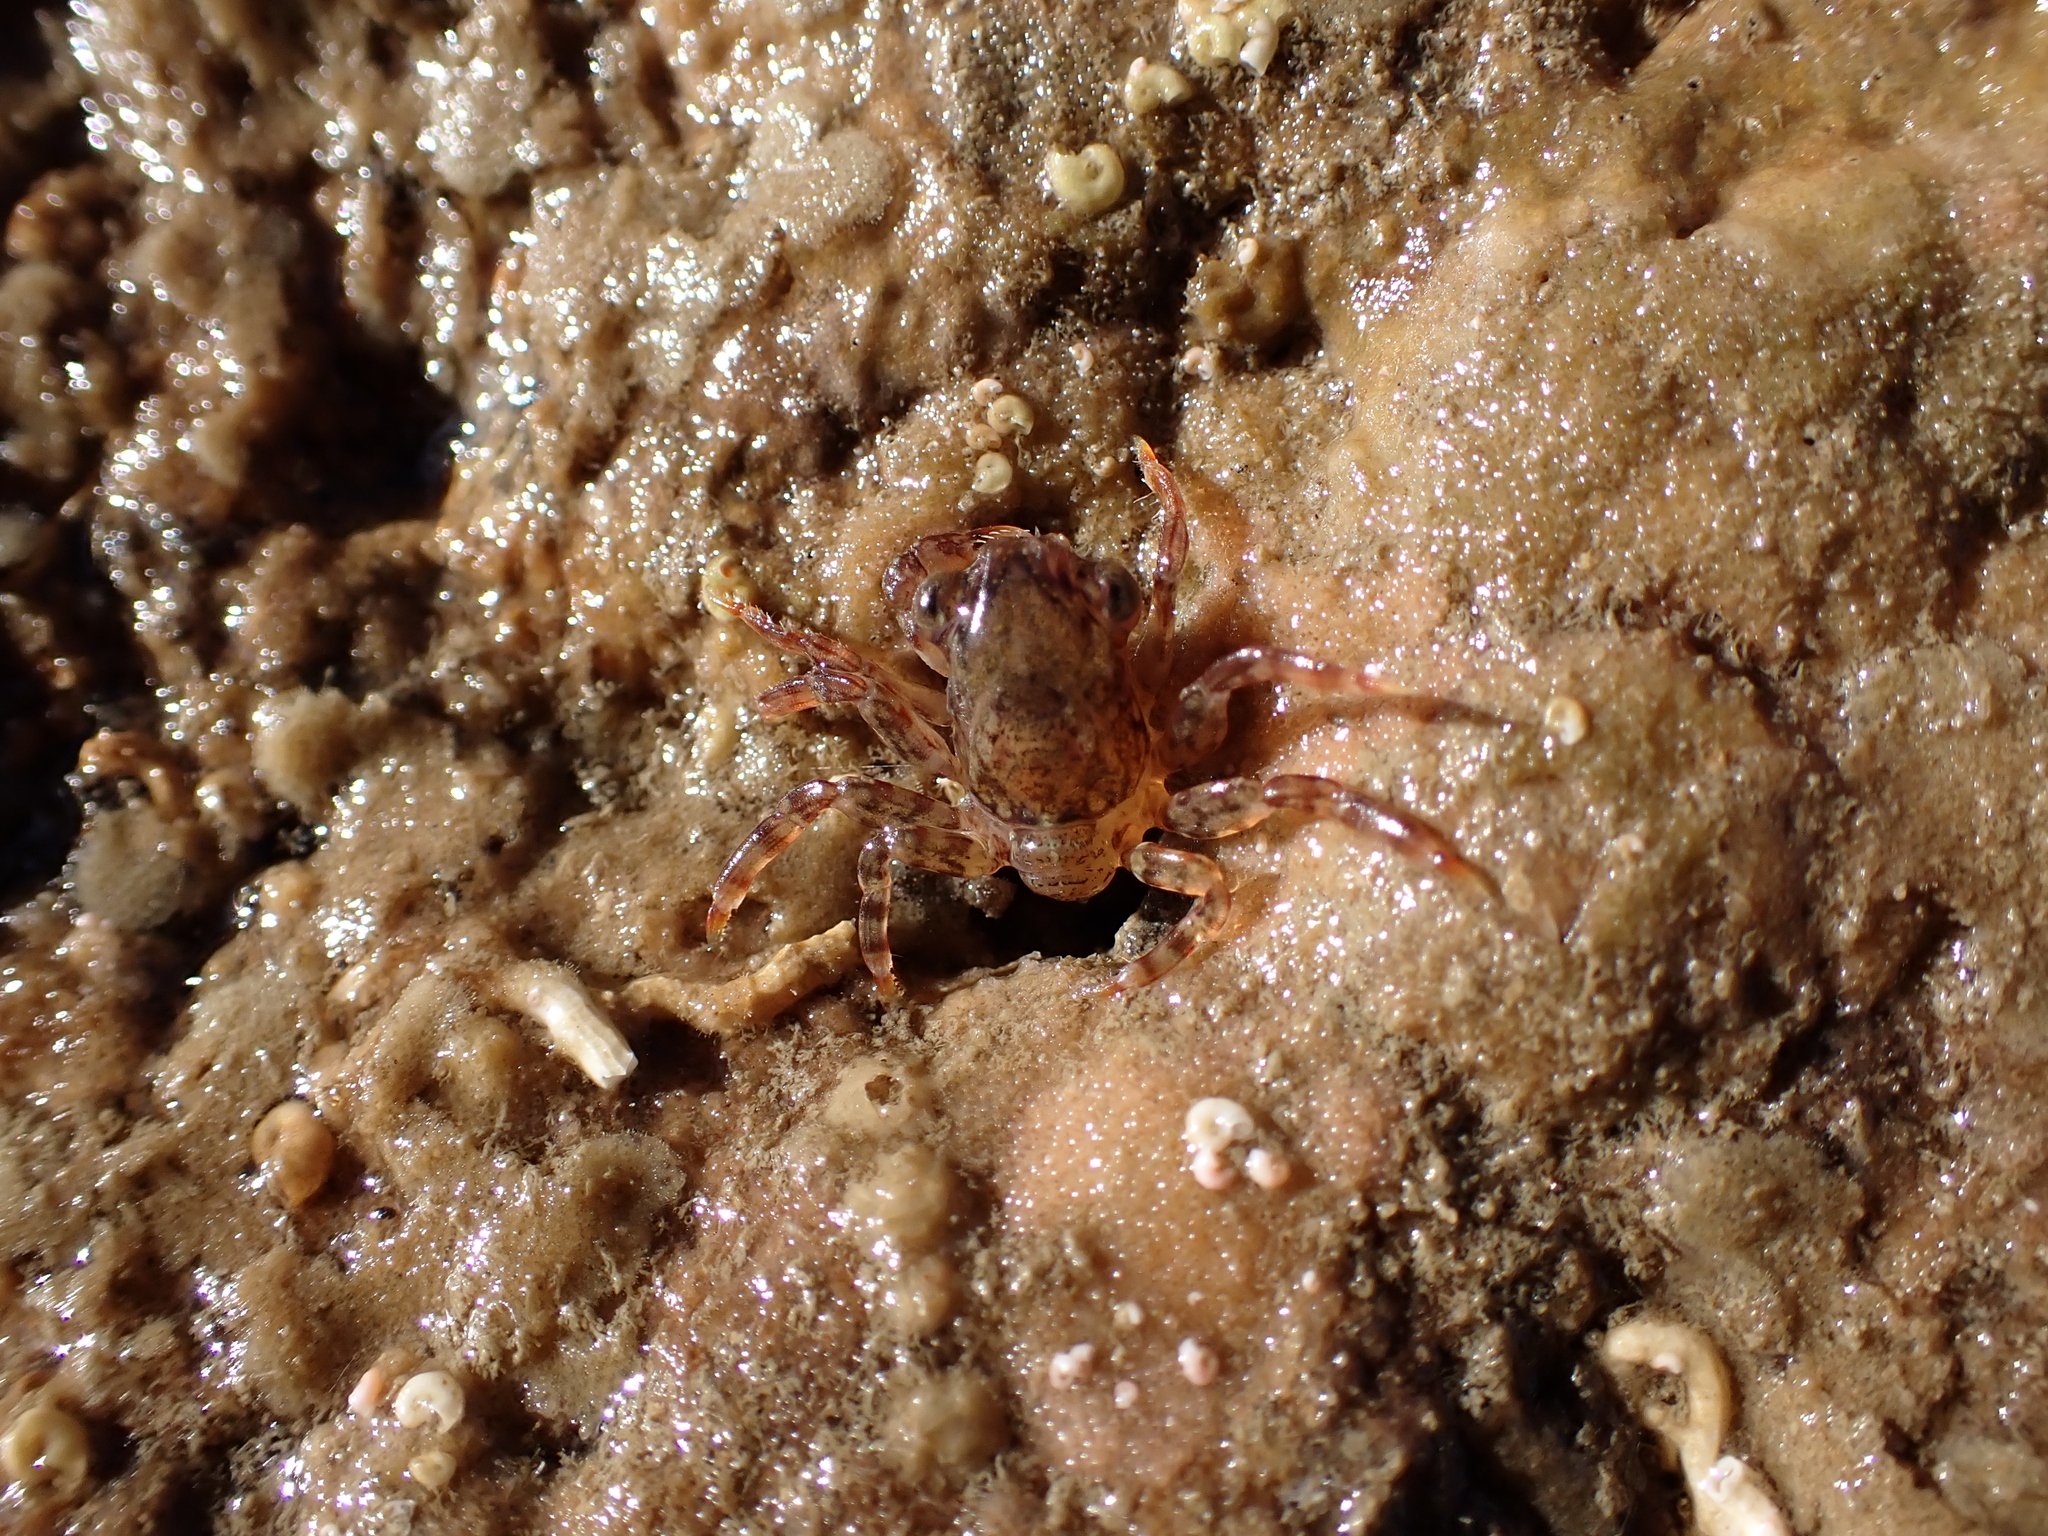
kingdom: Animalia
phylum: Arthropoda
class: Malacostraca
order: Decapoda
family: Plagusiidae
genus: Guinusia
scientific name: Guinusia chabrus
